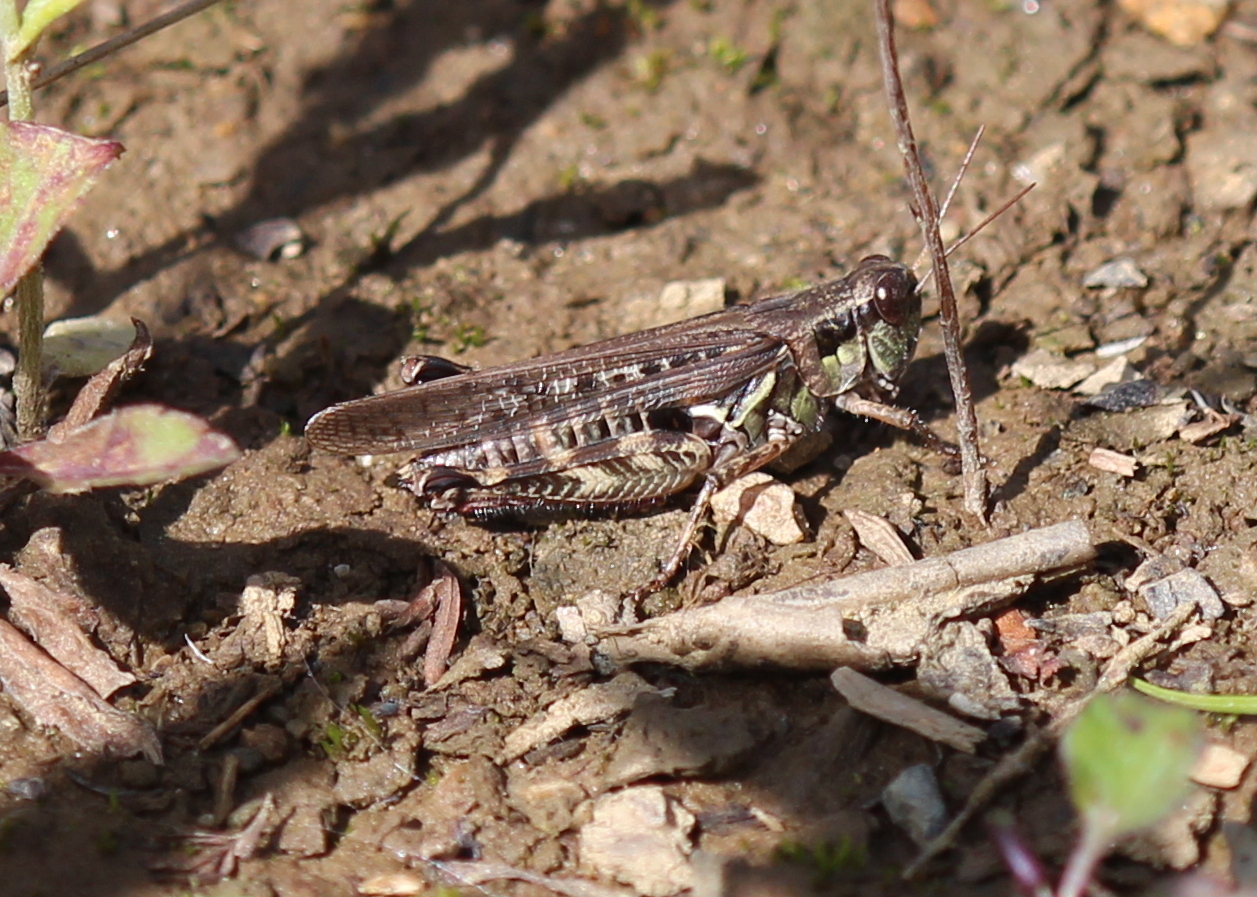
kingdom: Animalia
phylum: Arthropoda
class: Insecta
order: Orthoptera
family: Acrididae
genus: Melanoplus
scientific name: Melanoplus sanguinipes
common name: Migratory grasshopper
